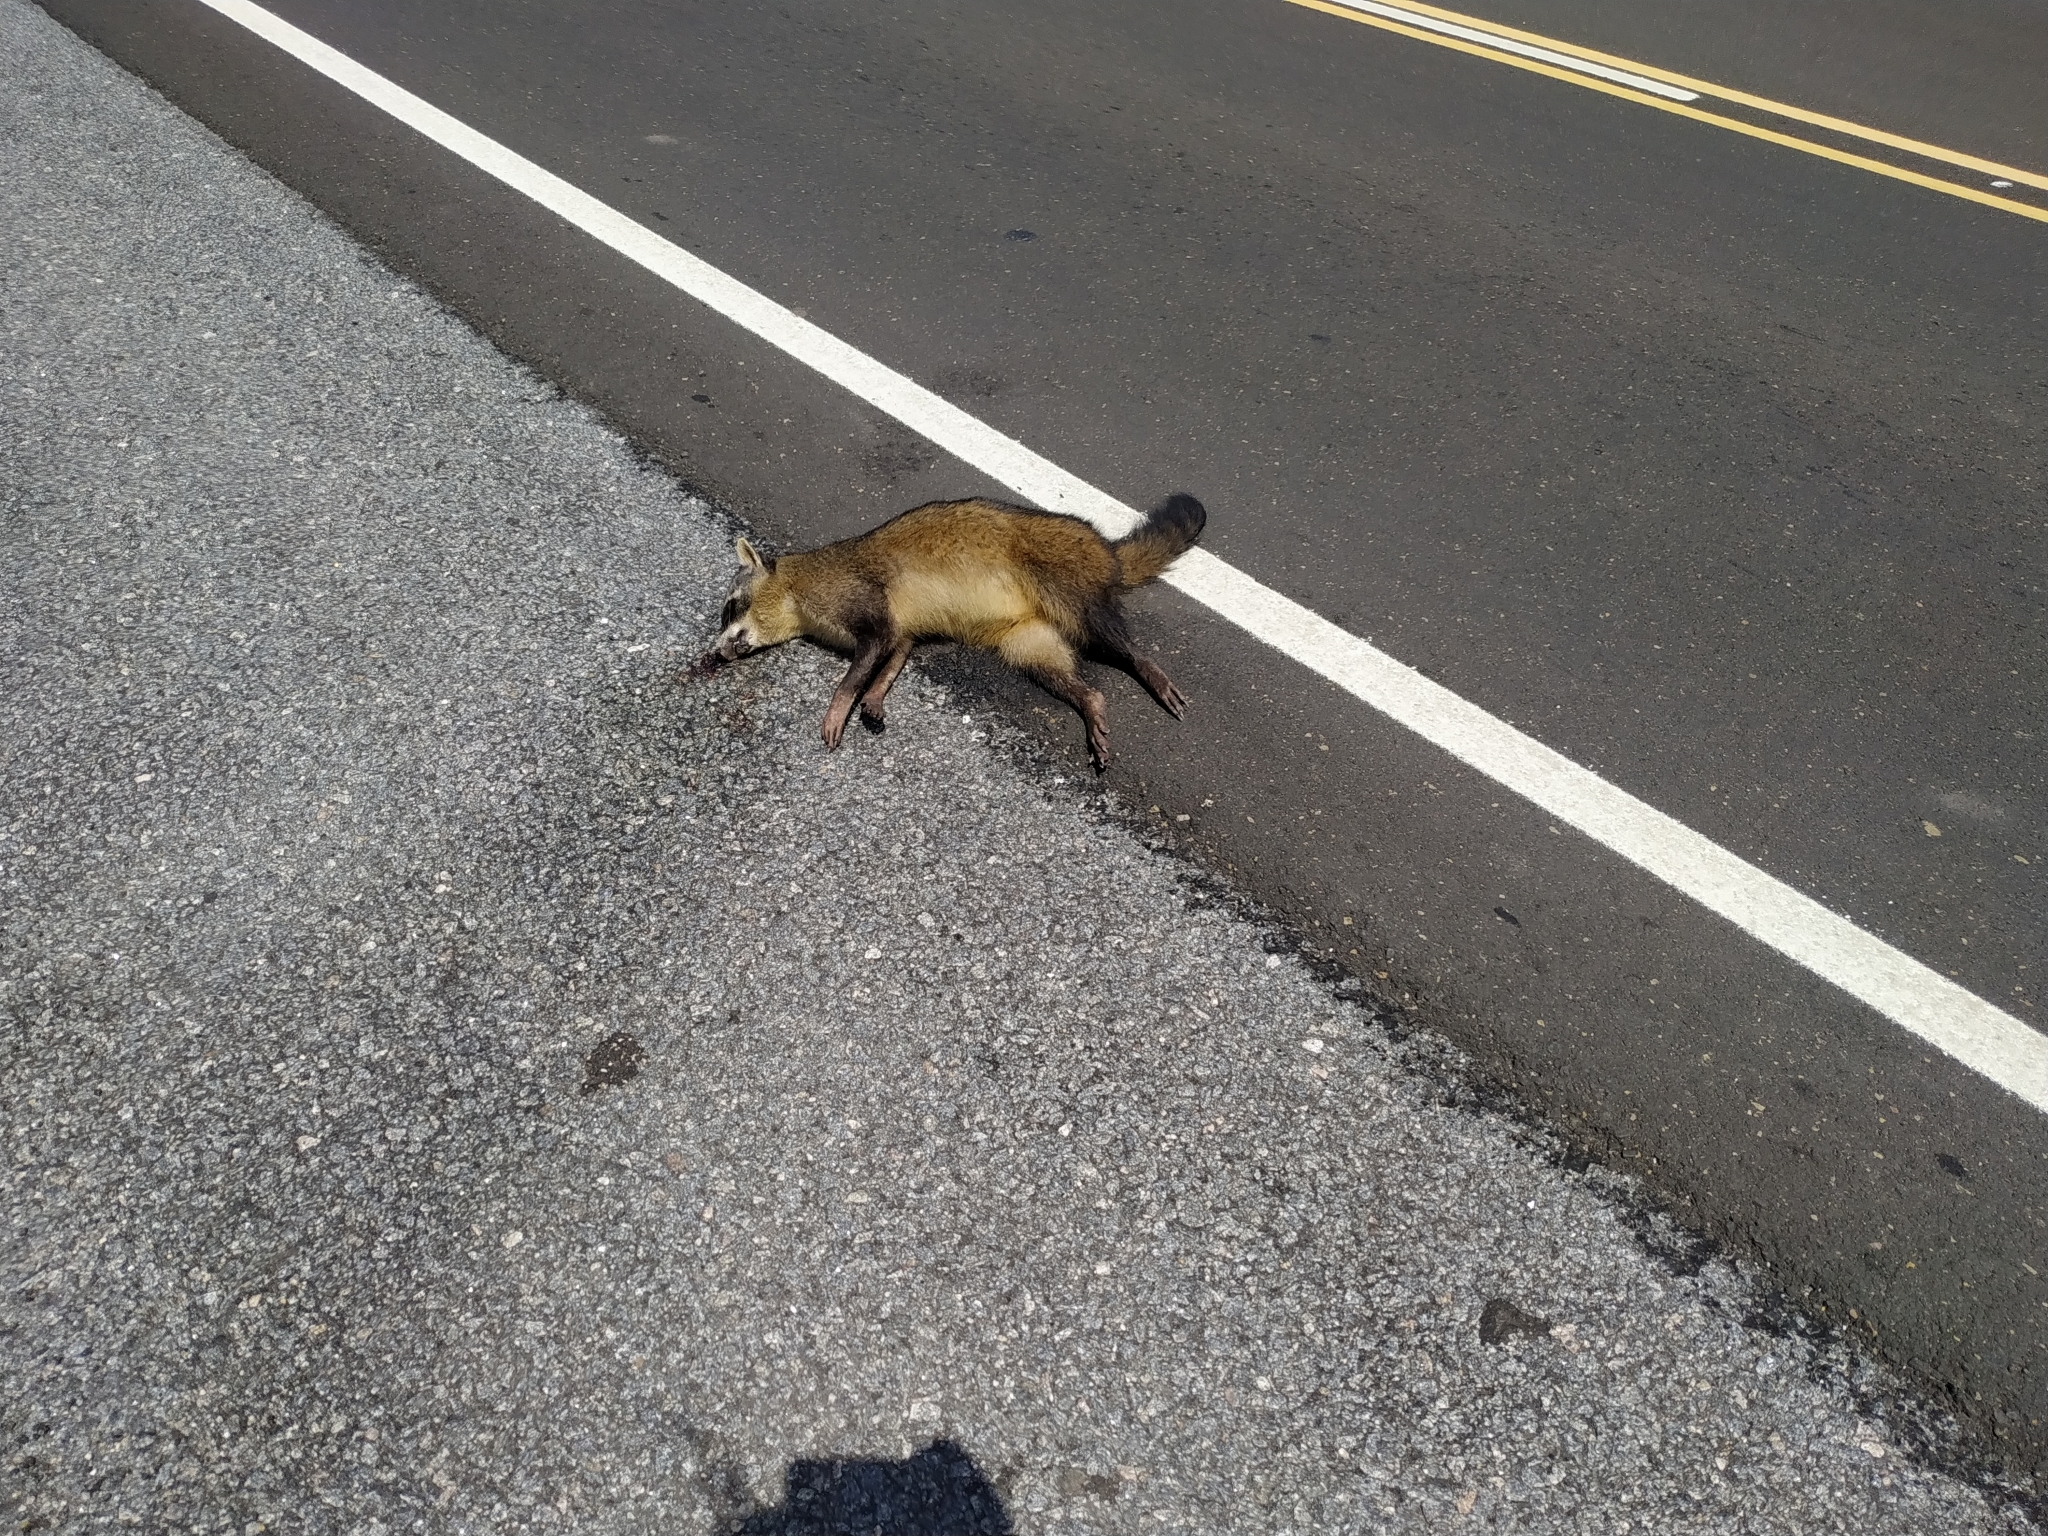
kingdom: Animalia
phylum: Chordata
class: Mammalia
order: Carnivora
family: Procyonidae
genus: Procyon
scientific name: Procyon cancrivorus
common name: Crab-eating raccoon
